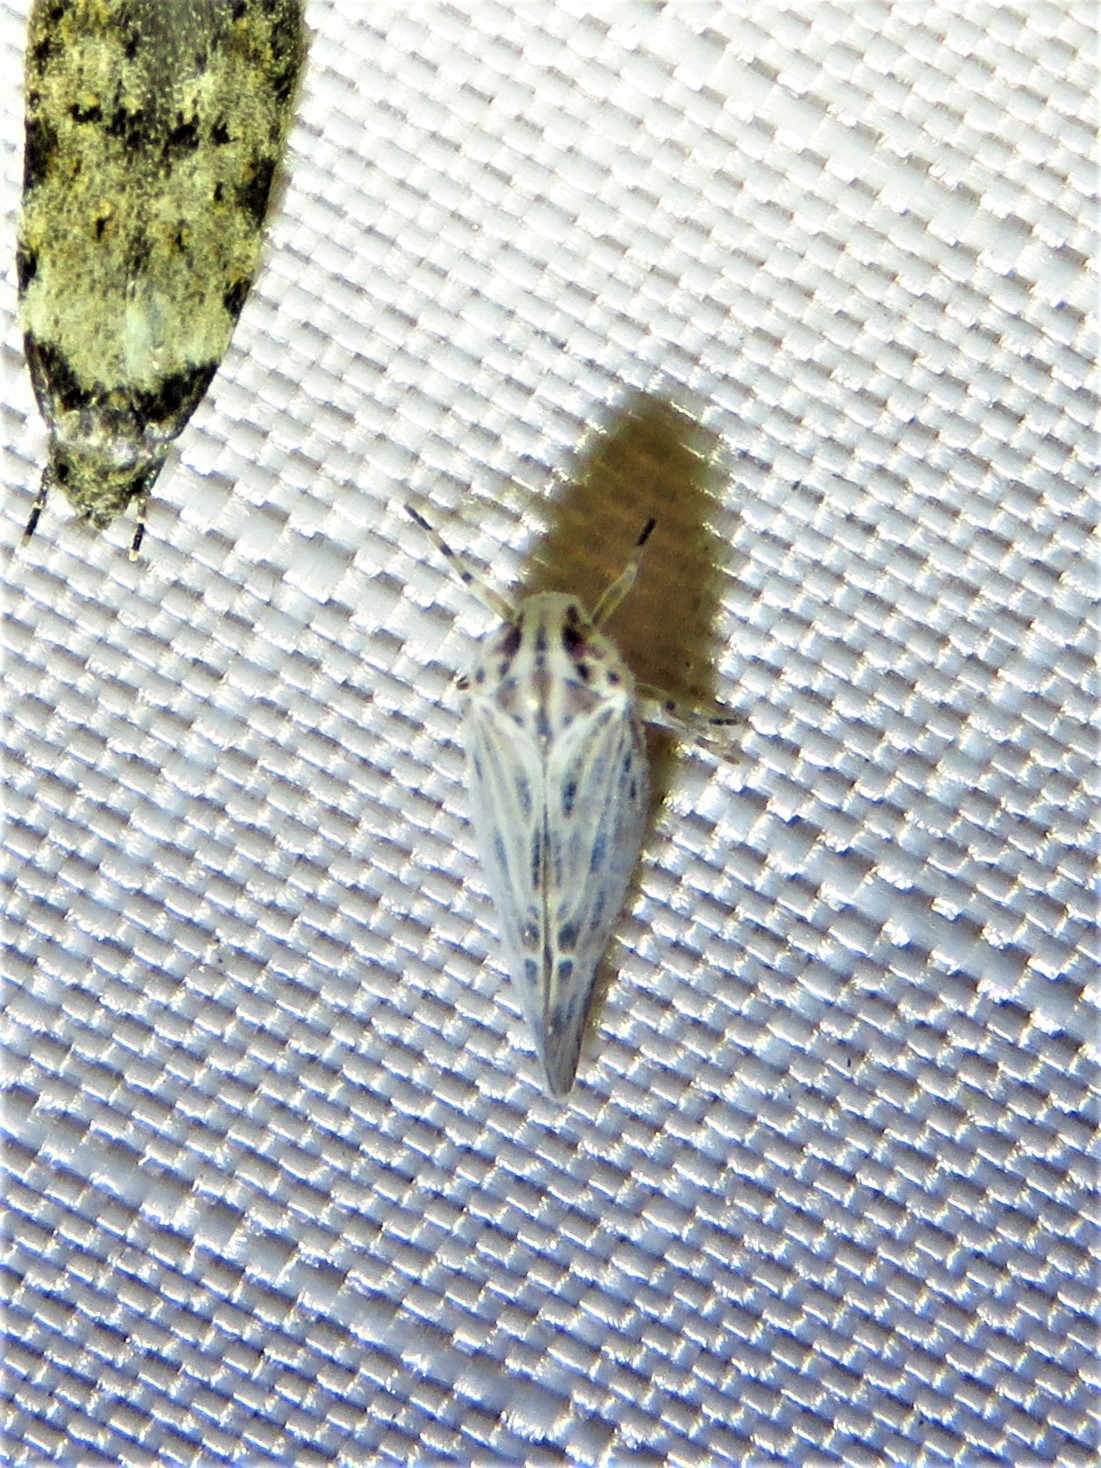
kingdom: Animalia
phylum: Arthropoda
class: Insecta
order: Hemiptera
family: Derbidae
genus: Cedusa
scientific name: Cedusa maculata
